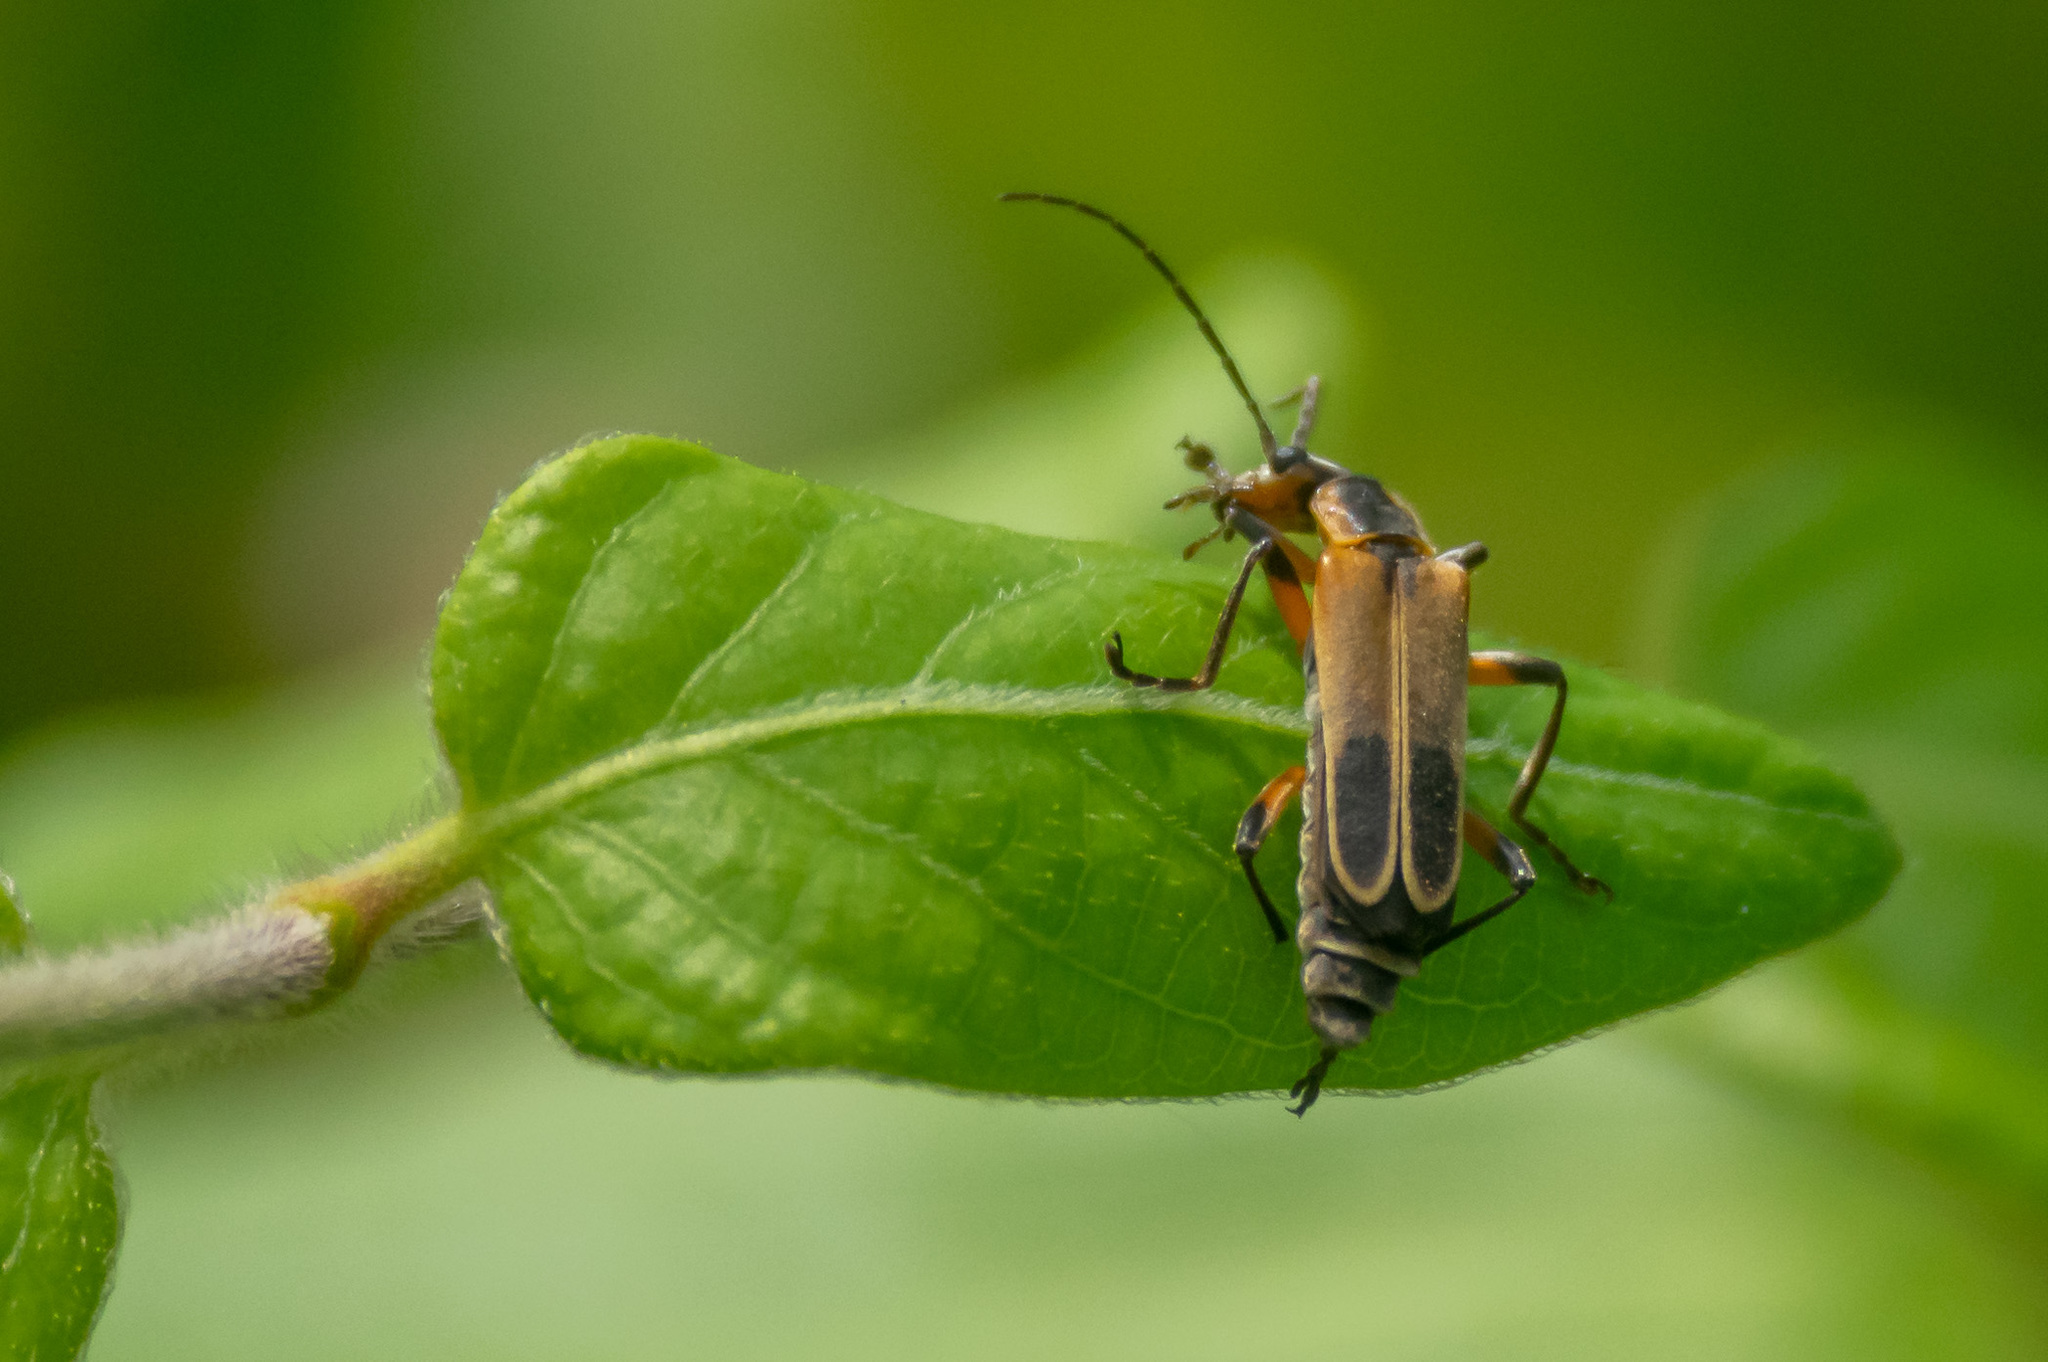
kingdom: Animalia
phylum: Arthropoda
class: Insecta
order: Coleoptera
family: Cantharidae
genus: Chauliognathus
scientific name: Chauliognathus marginatus
